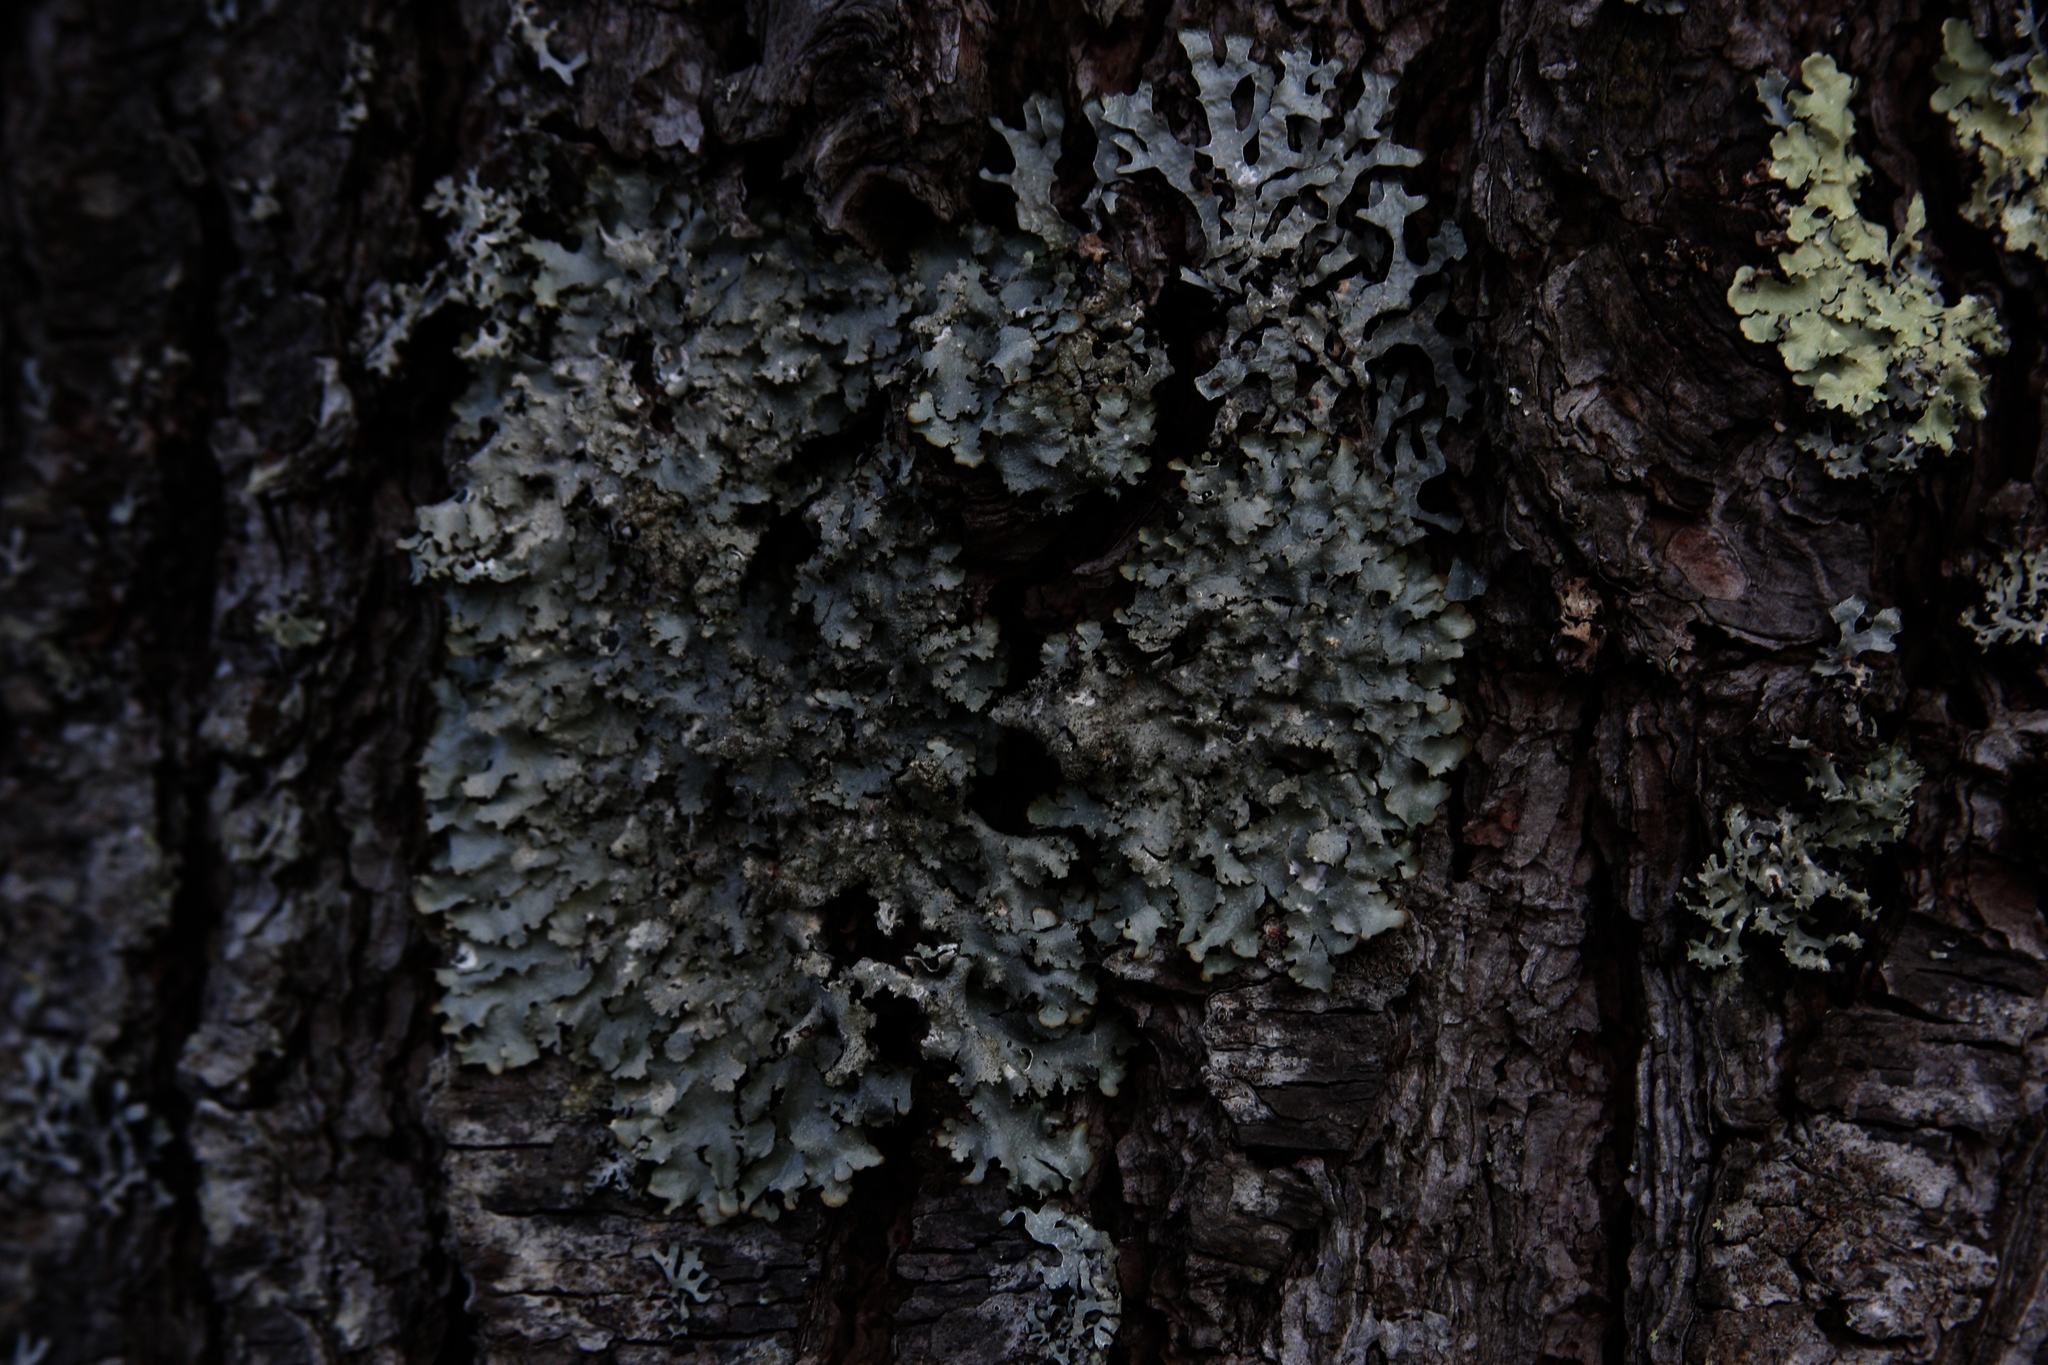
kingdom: Fungi
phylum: Ascomycota
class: Lecanoromycetes
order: Lecanorales
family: Parmeliaceae
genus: Punctelia
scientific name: Punctelia rudecta
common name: Rough speckled shield lichen
